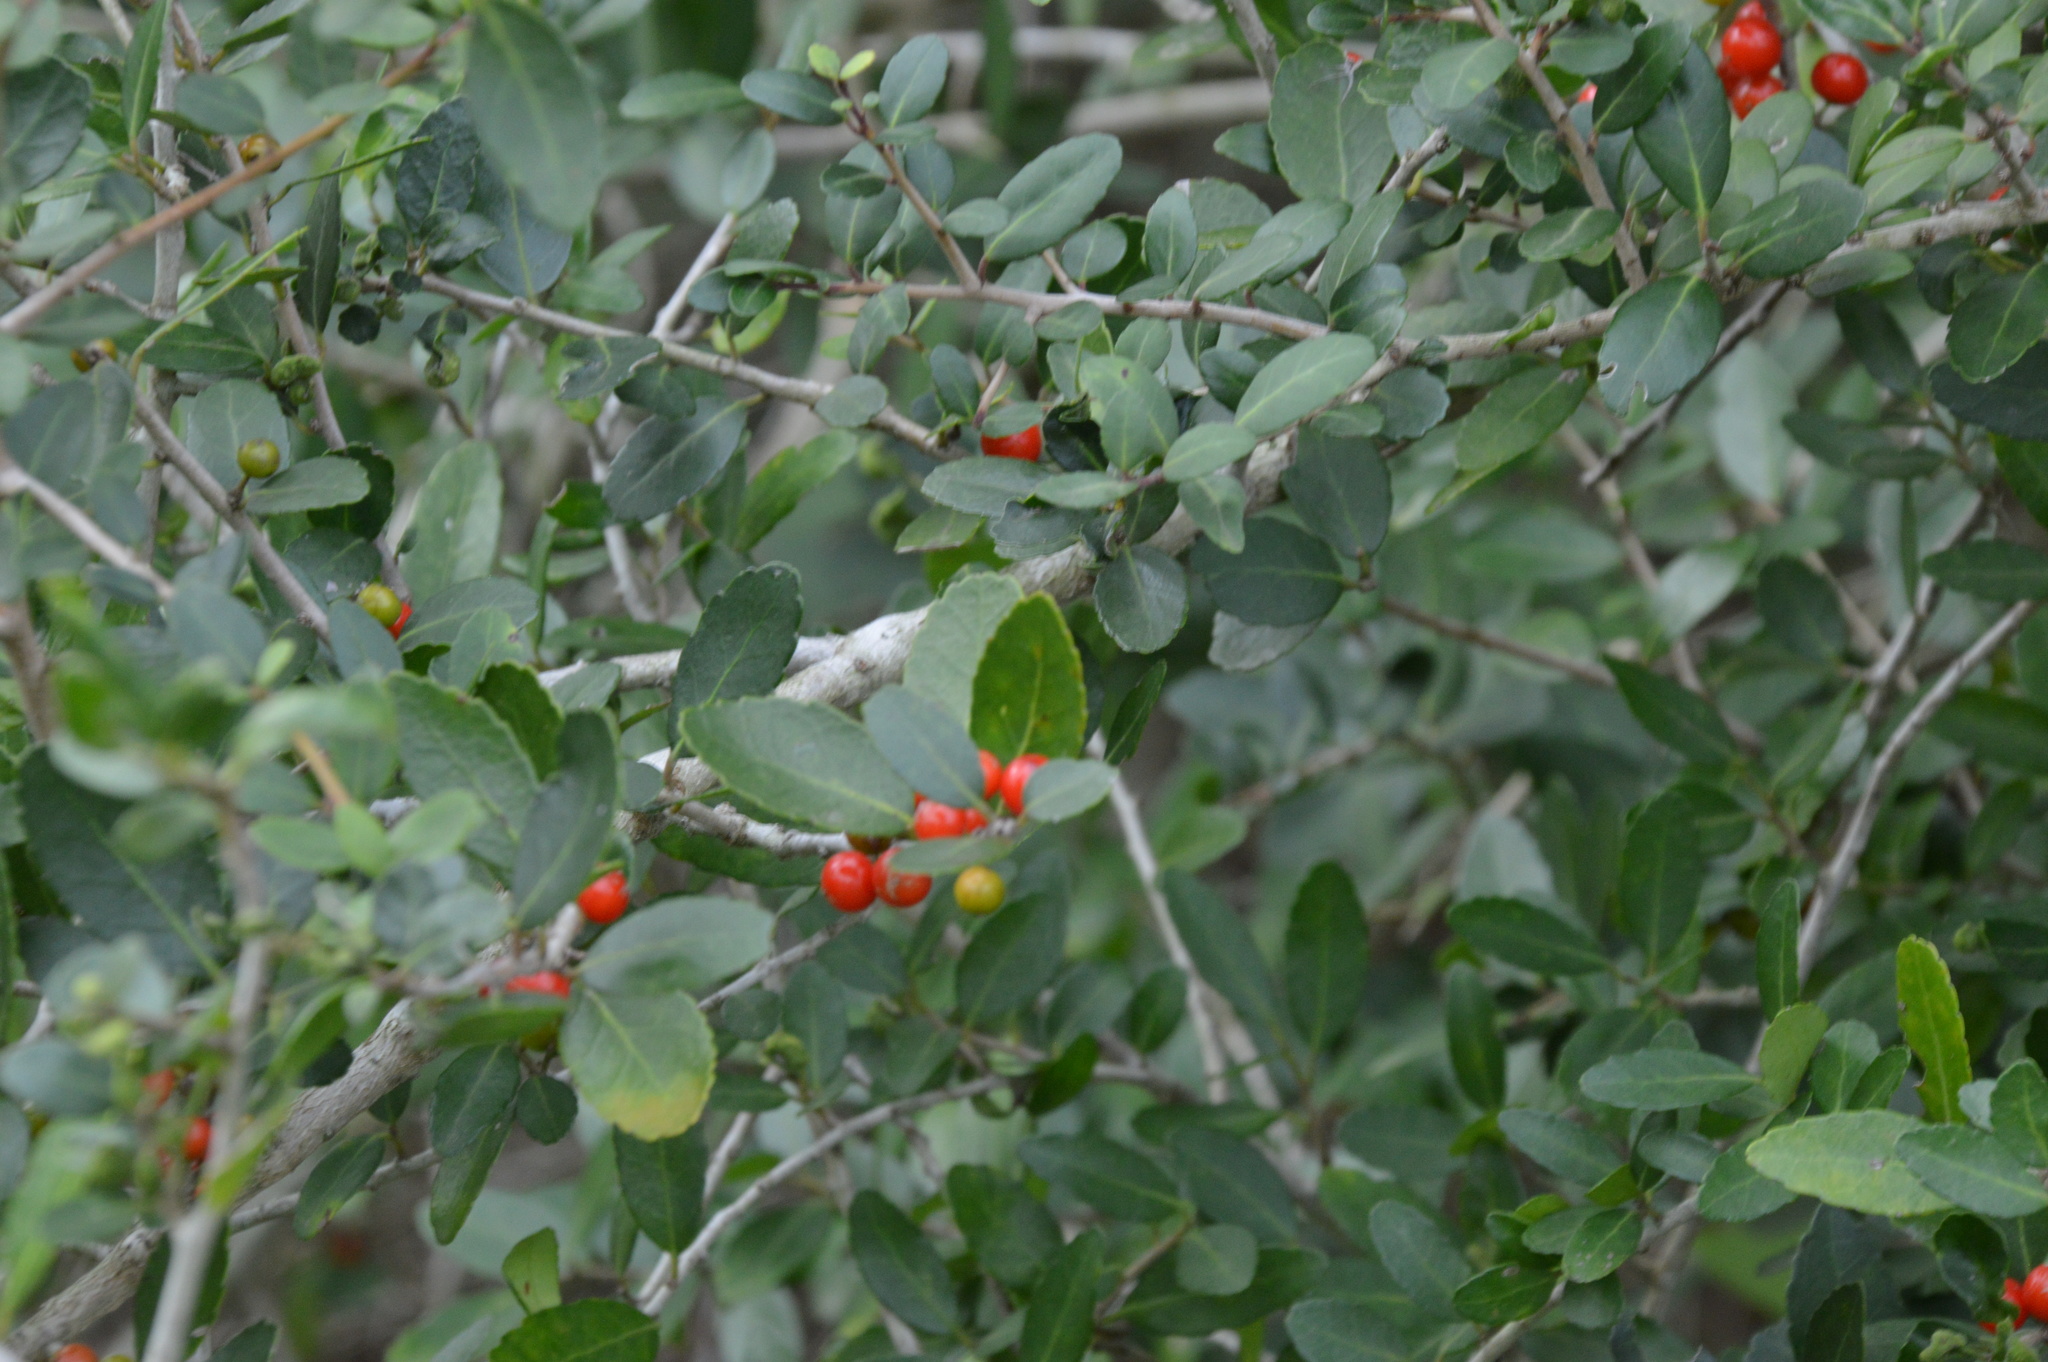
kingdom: Plantae
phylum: Tracheophyta
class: Magnoliopsida
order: Aquifoliales
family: Aquifoliaceae
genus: Ilex
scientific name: Ilex vomitoria
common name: Yaupon holly
